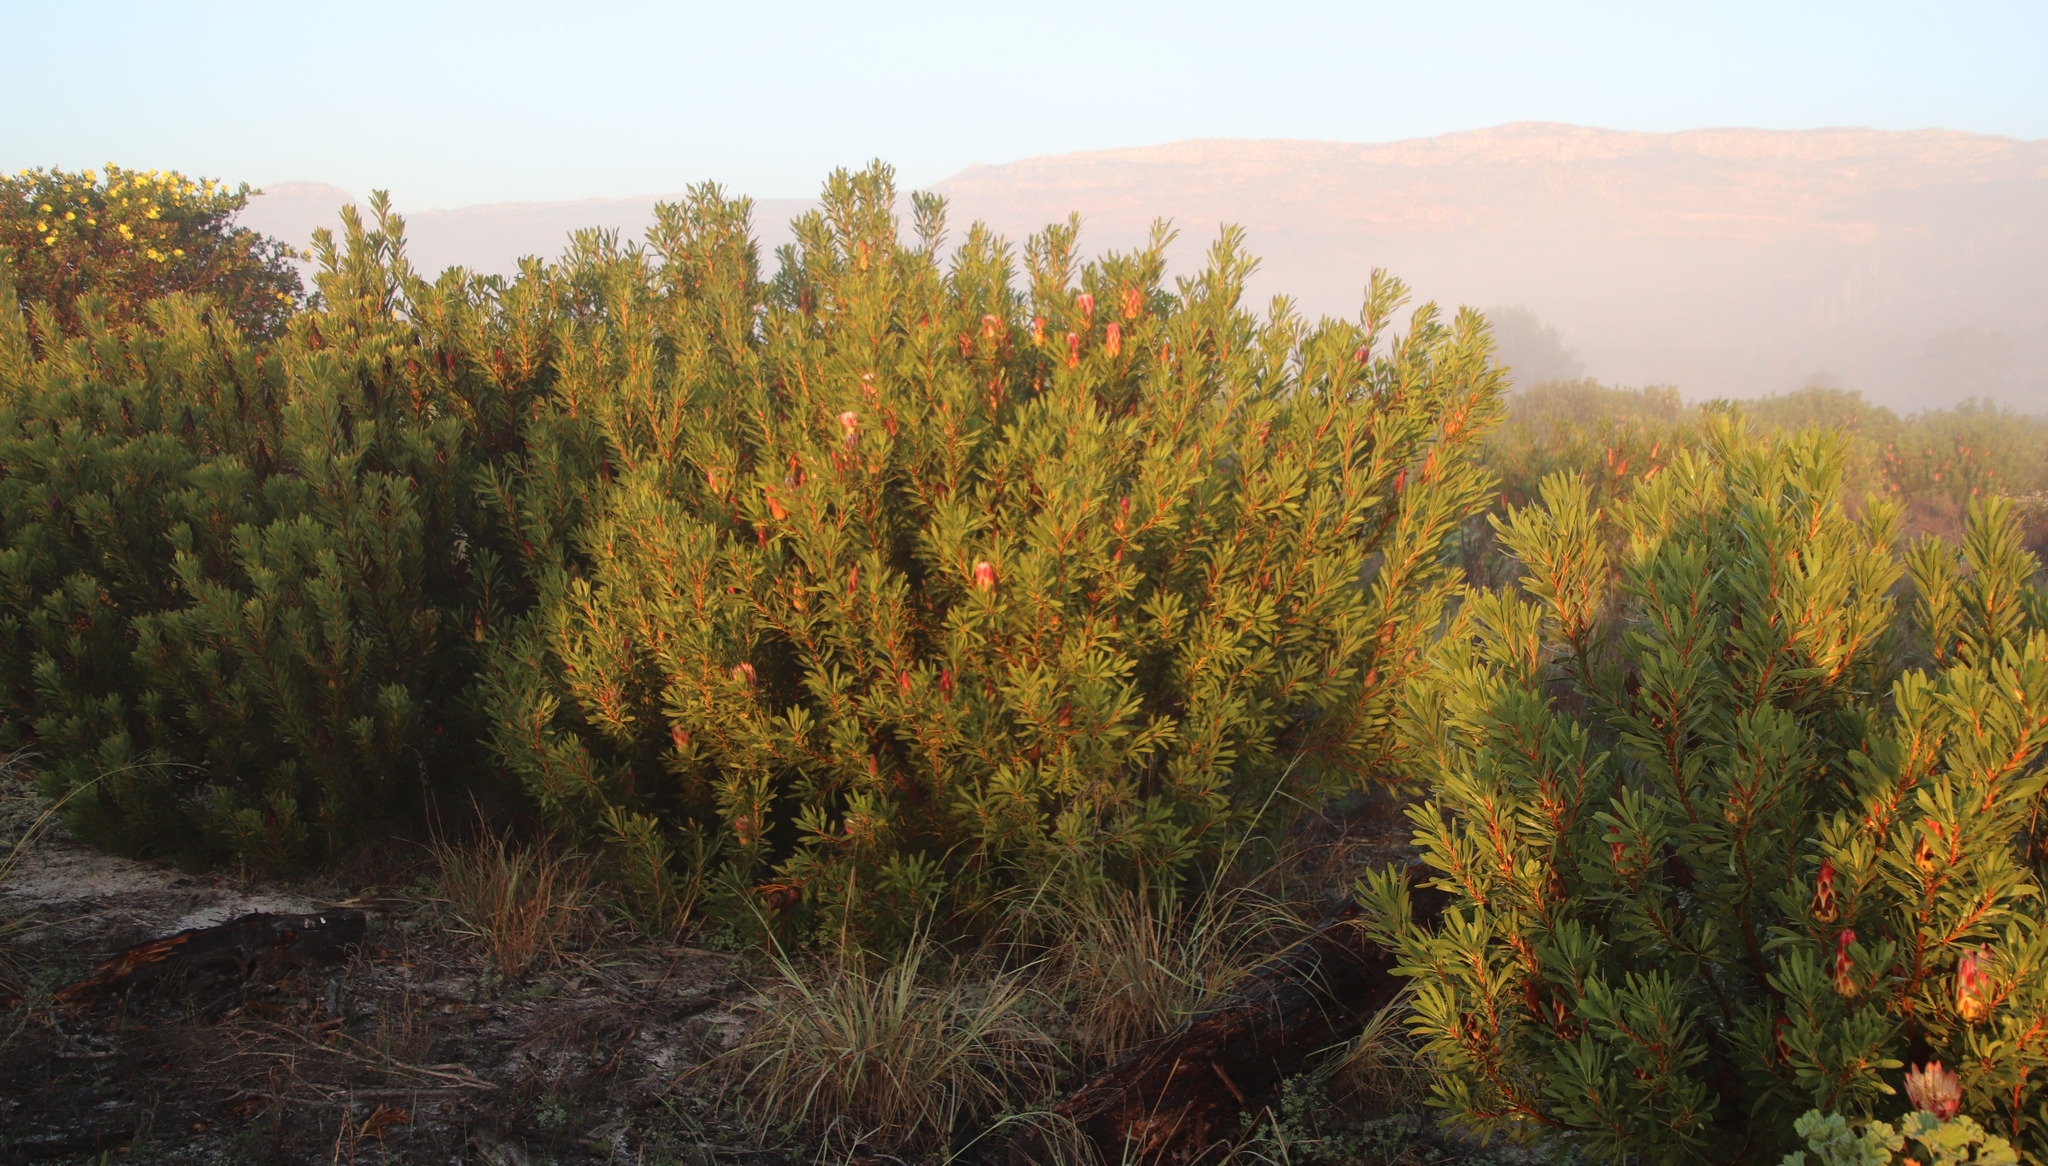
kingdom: Plantae
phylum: Tracheophyta
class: Magnoliopsida
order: Proteales
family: Proteaceae
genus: Protea
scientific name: Protea repens
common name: Sugarbush
